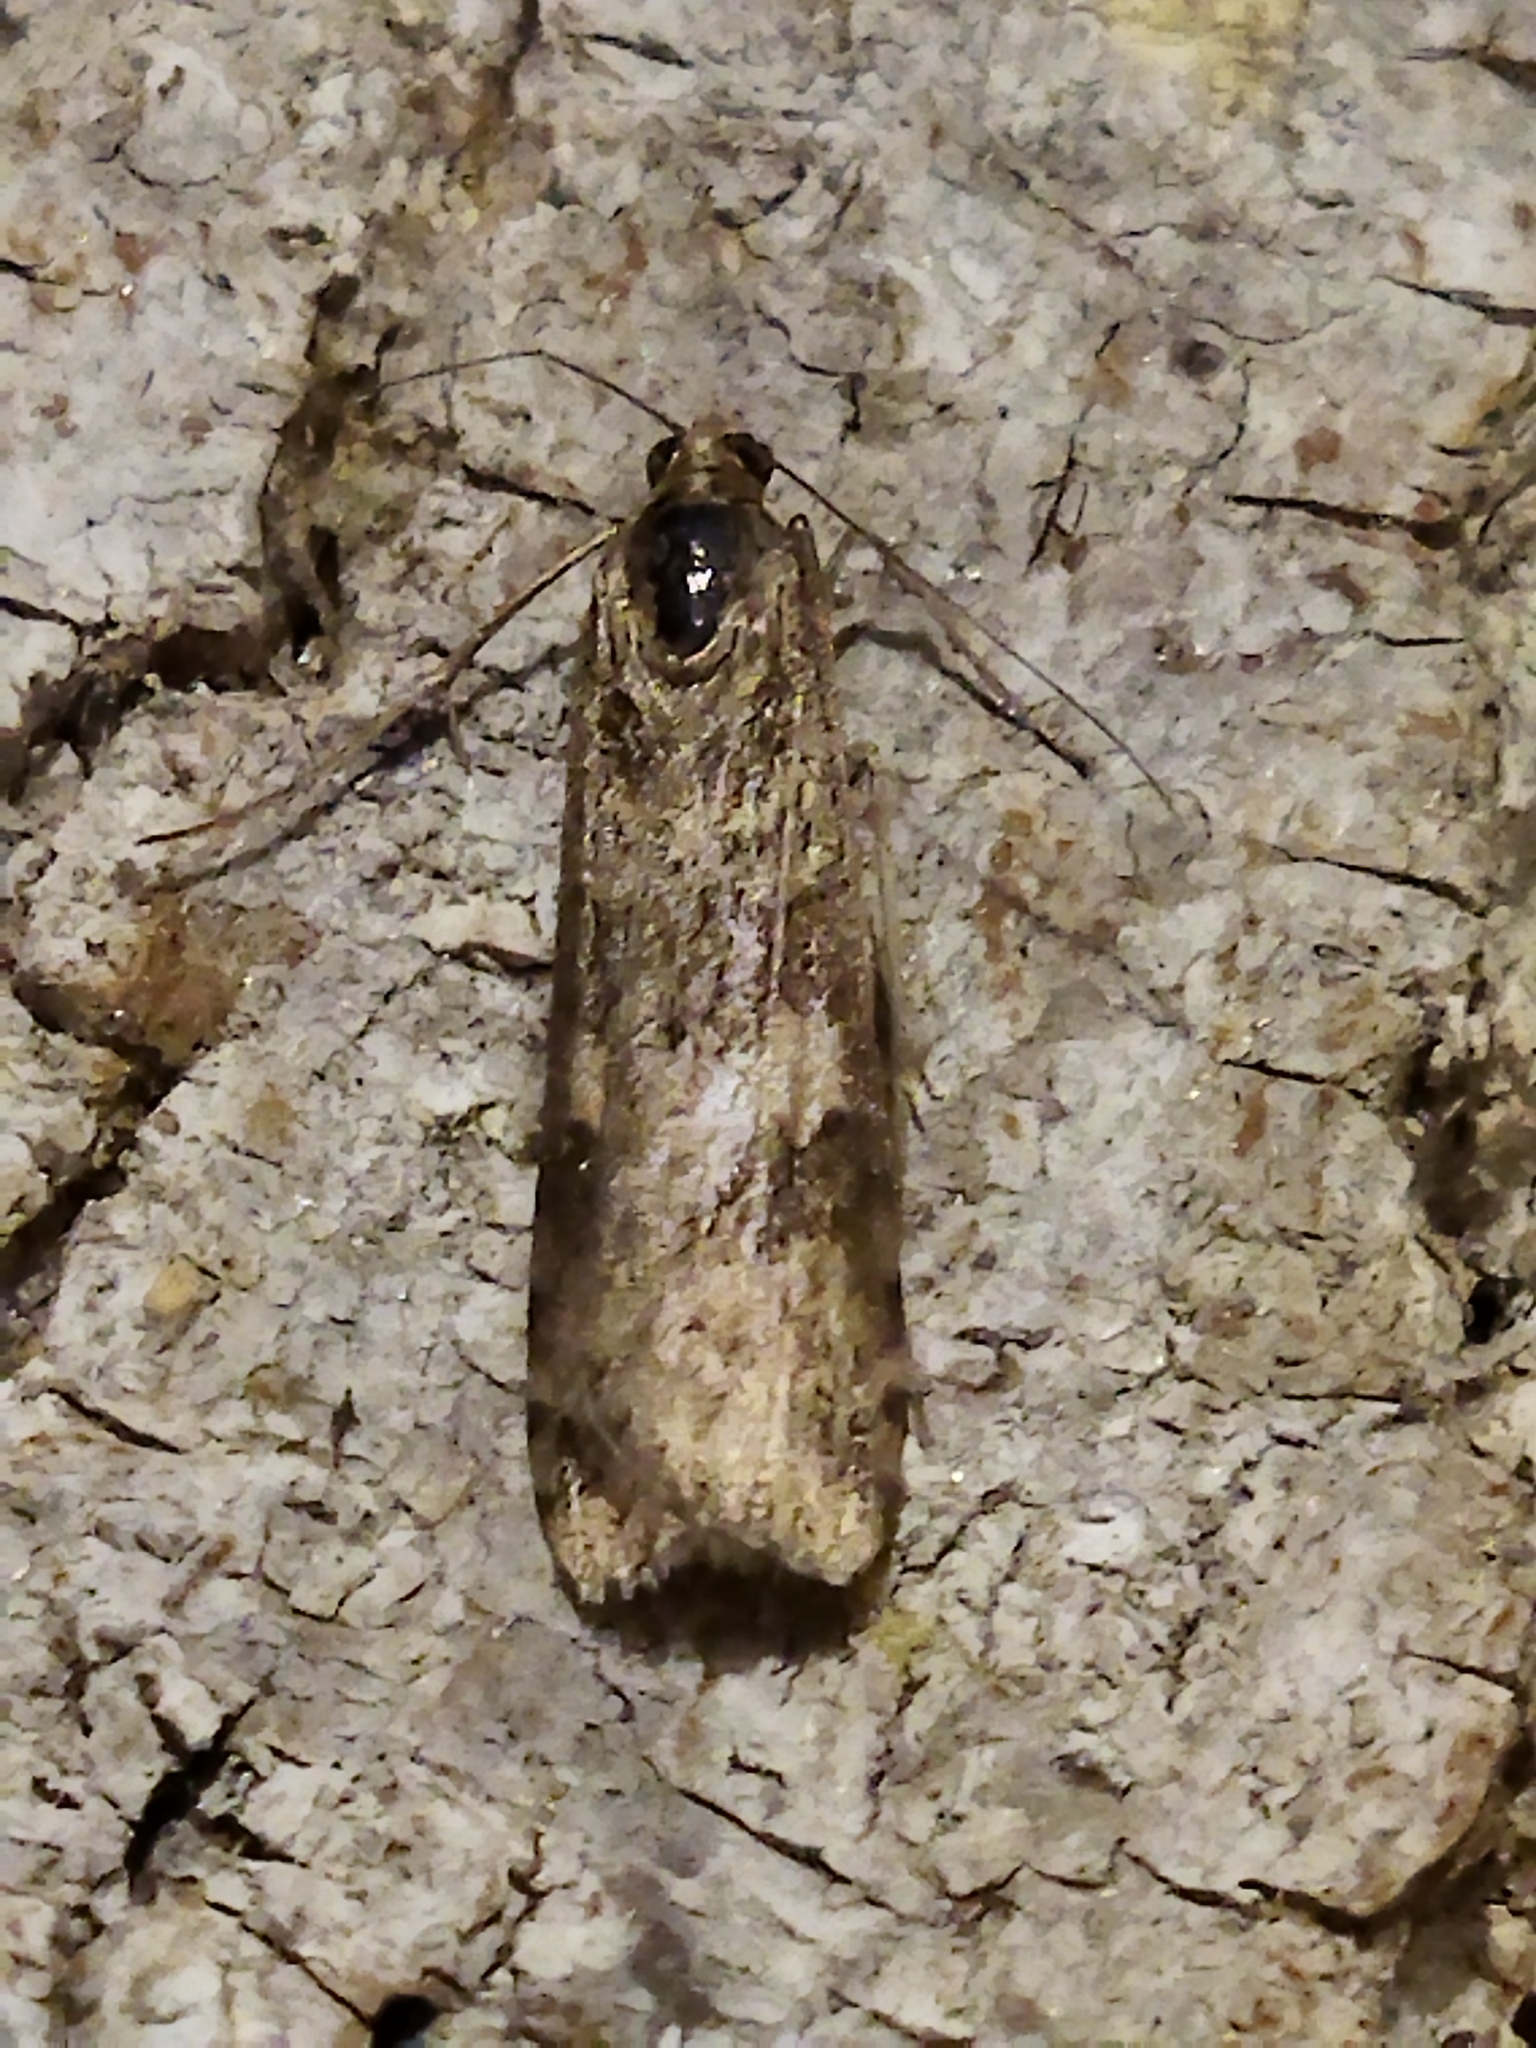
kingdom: Animalia
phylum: Arthropoda
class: Insecta
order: Lepidoptera
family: Crambidae
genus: Nomophila
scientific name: Nomophila noctuella
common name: Rush veneer
